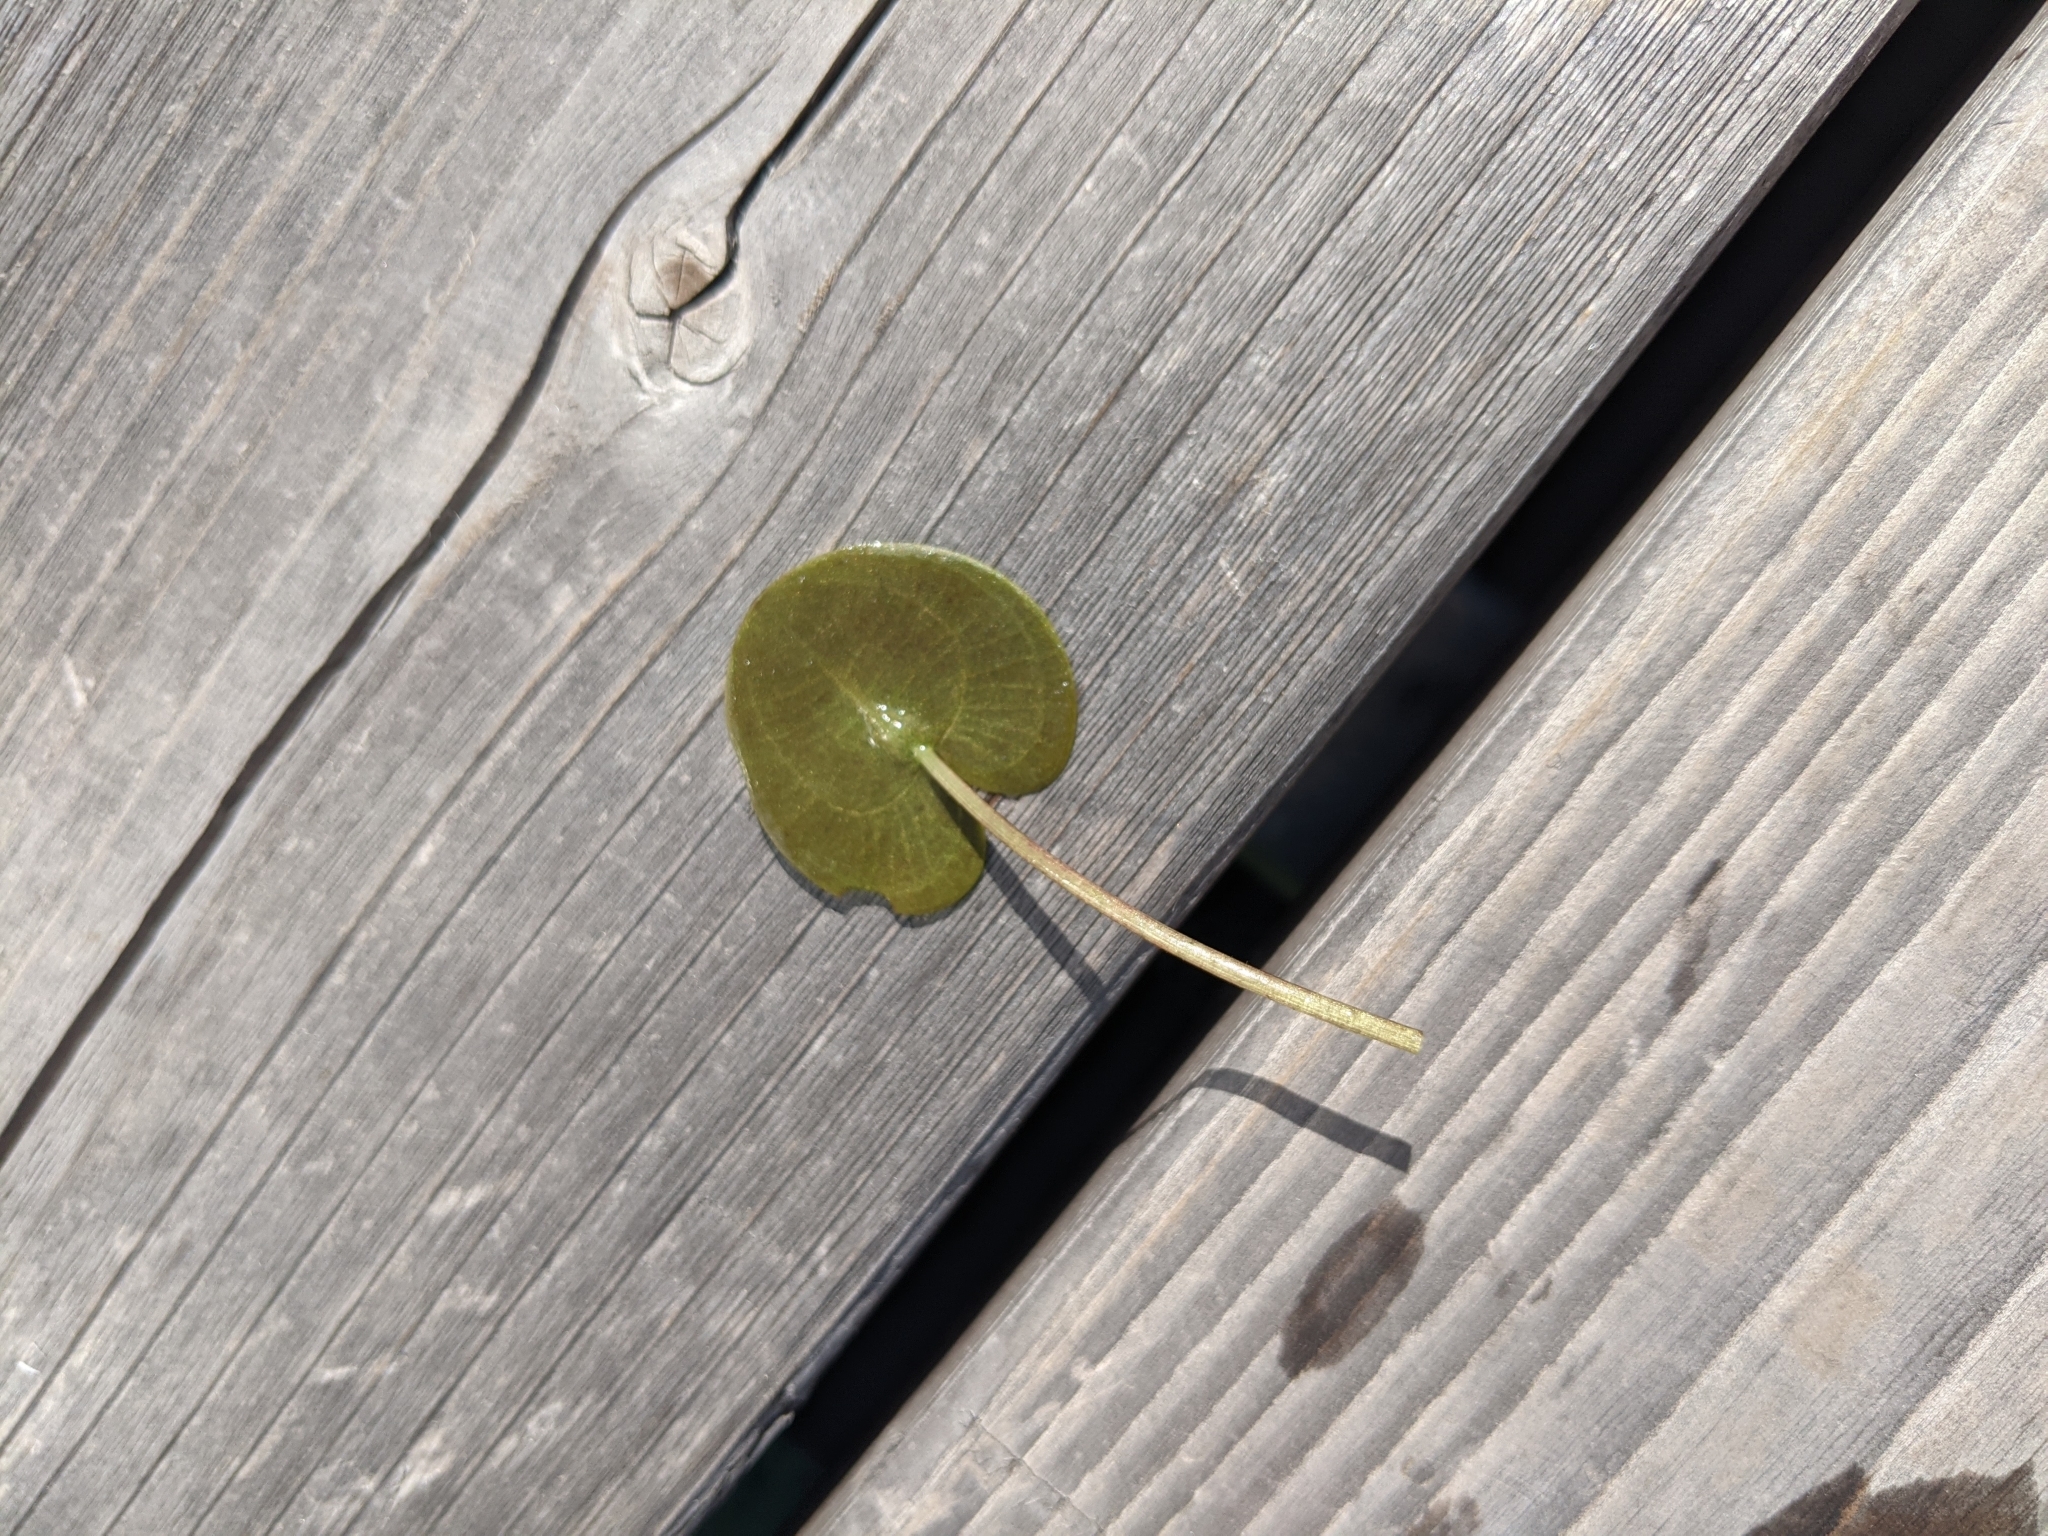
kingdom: Plantae
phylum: Tracheophyta
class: Liliopsida
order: Alismatales
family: Hydrocharitaceae
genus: Hydrocharis
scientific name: Hydrocharis morsus-ranae
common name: Frogbit
